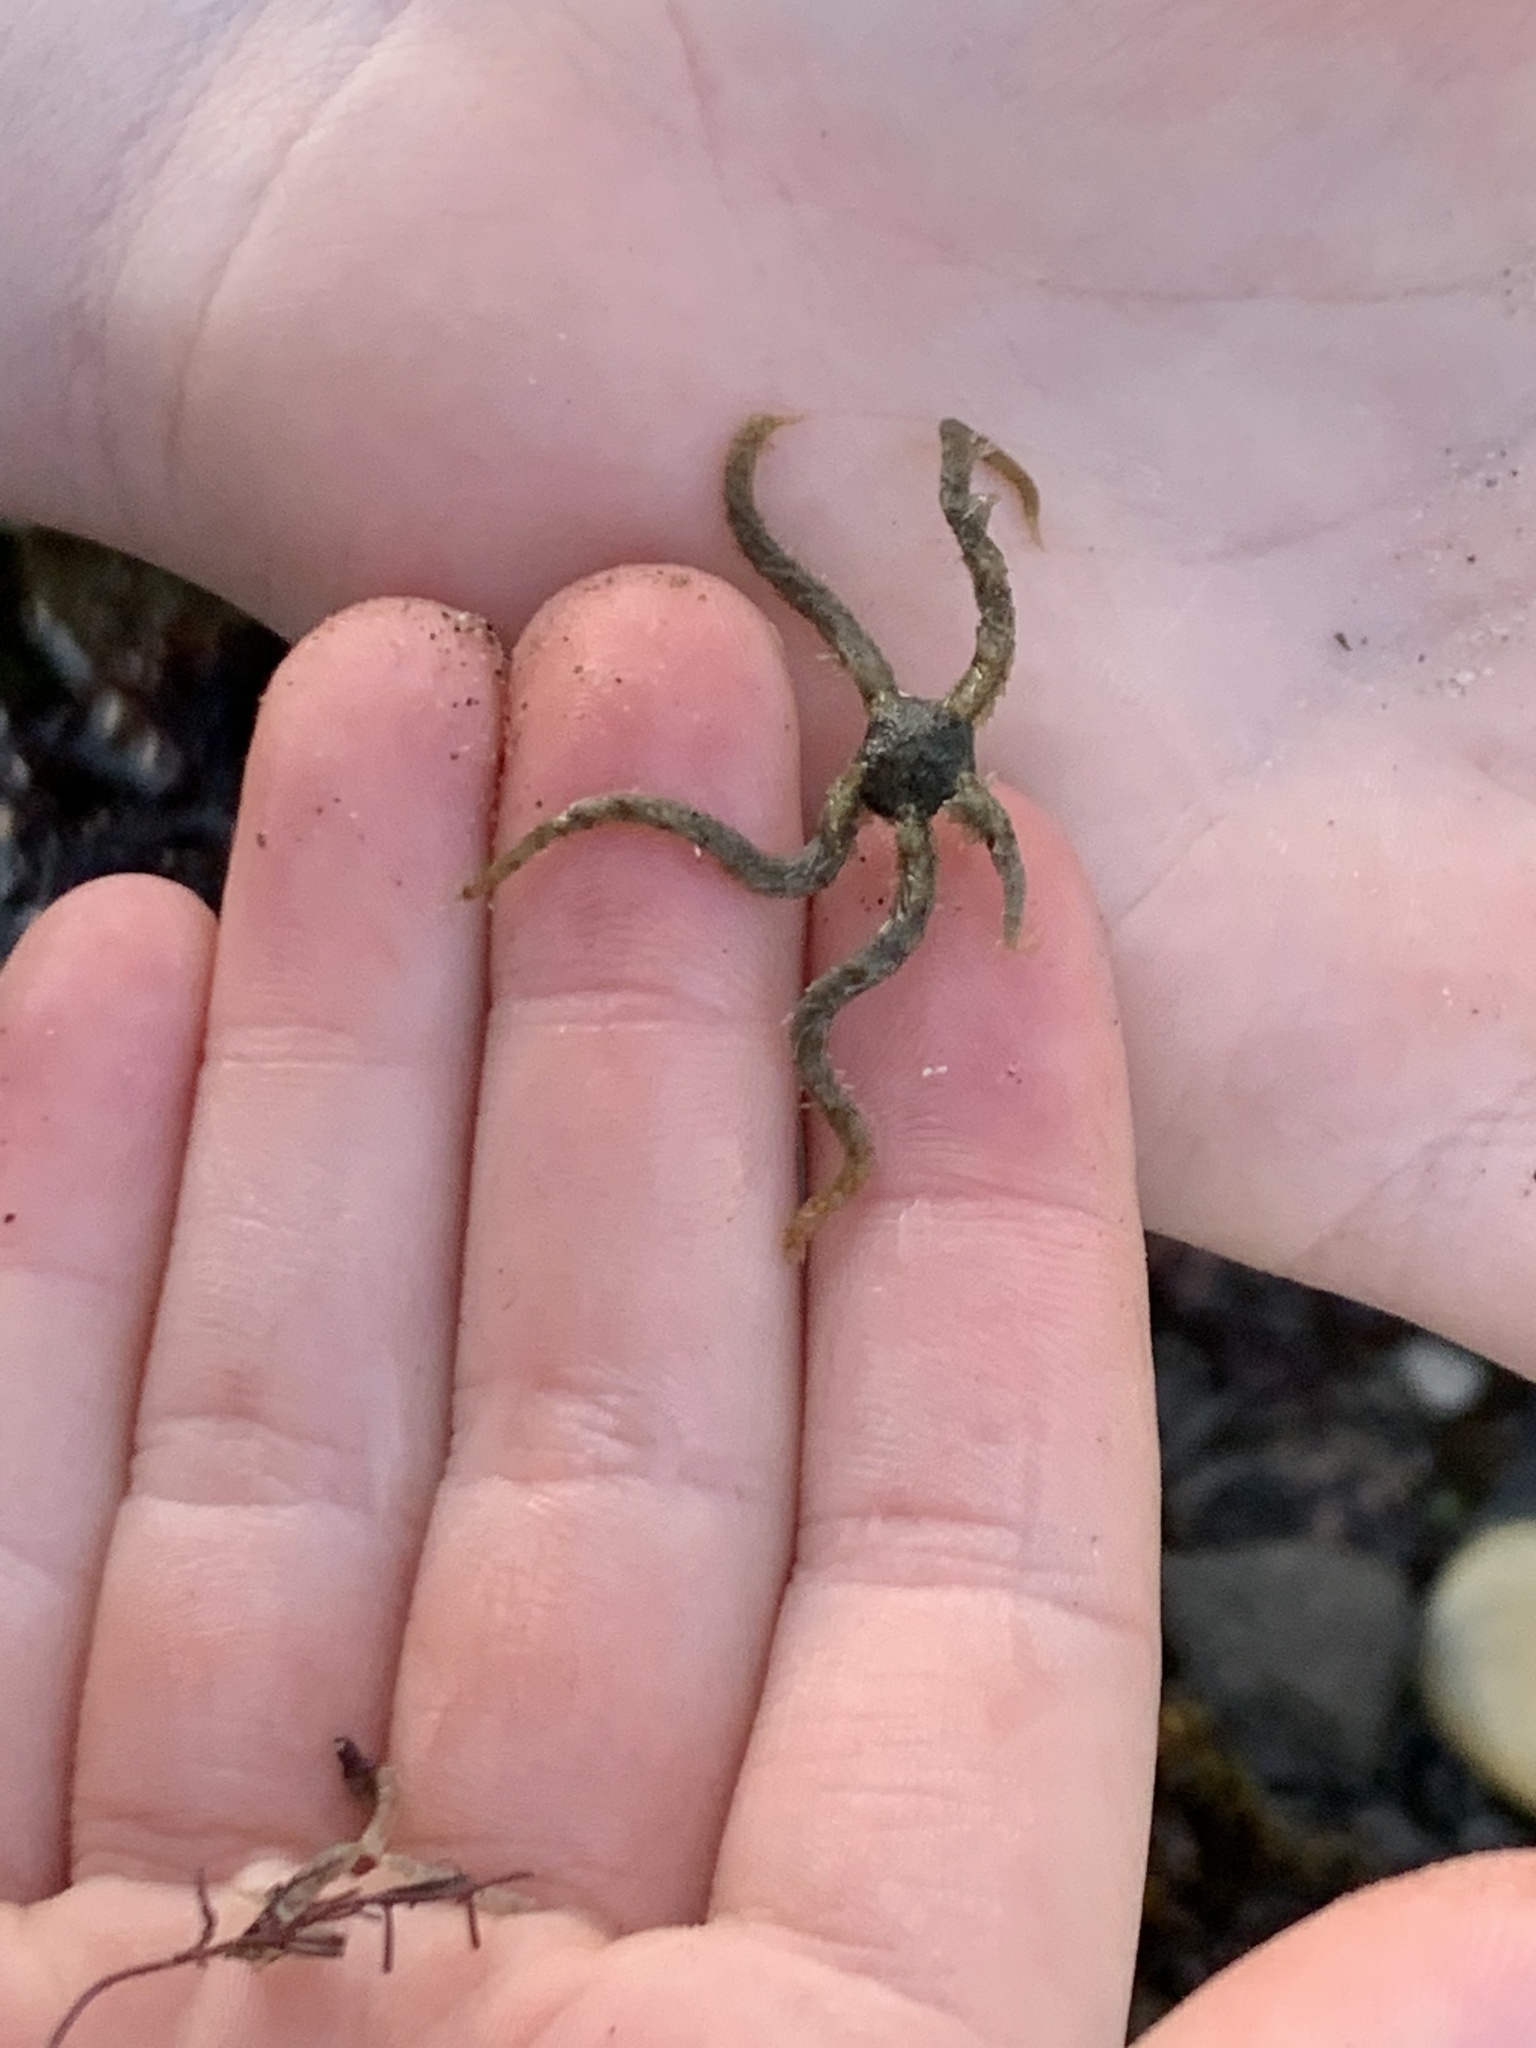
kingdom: Animalia
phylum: Echinodermata
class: Ophiuroidea
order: Amphilepidida
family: Ophiotrichidae
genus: Ophiothrix
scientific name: Ophiothrix spiculata
